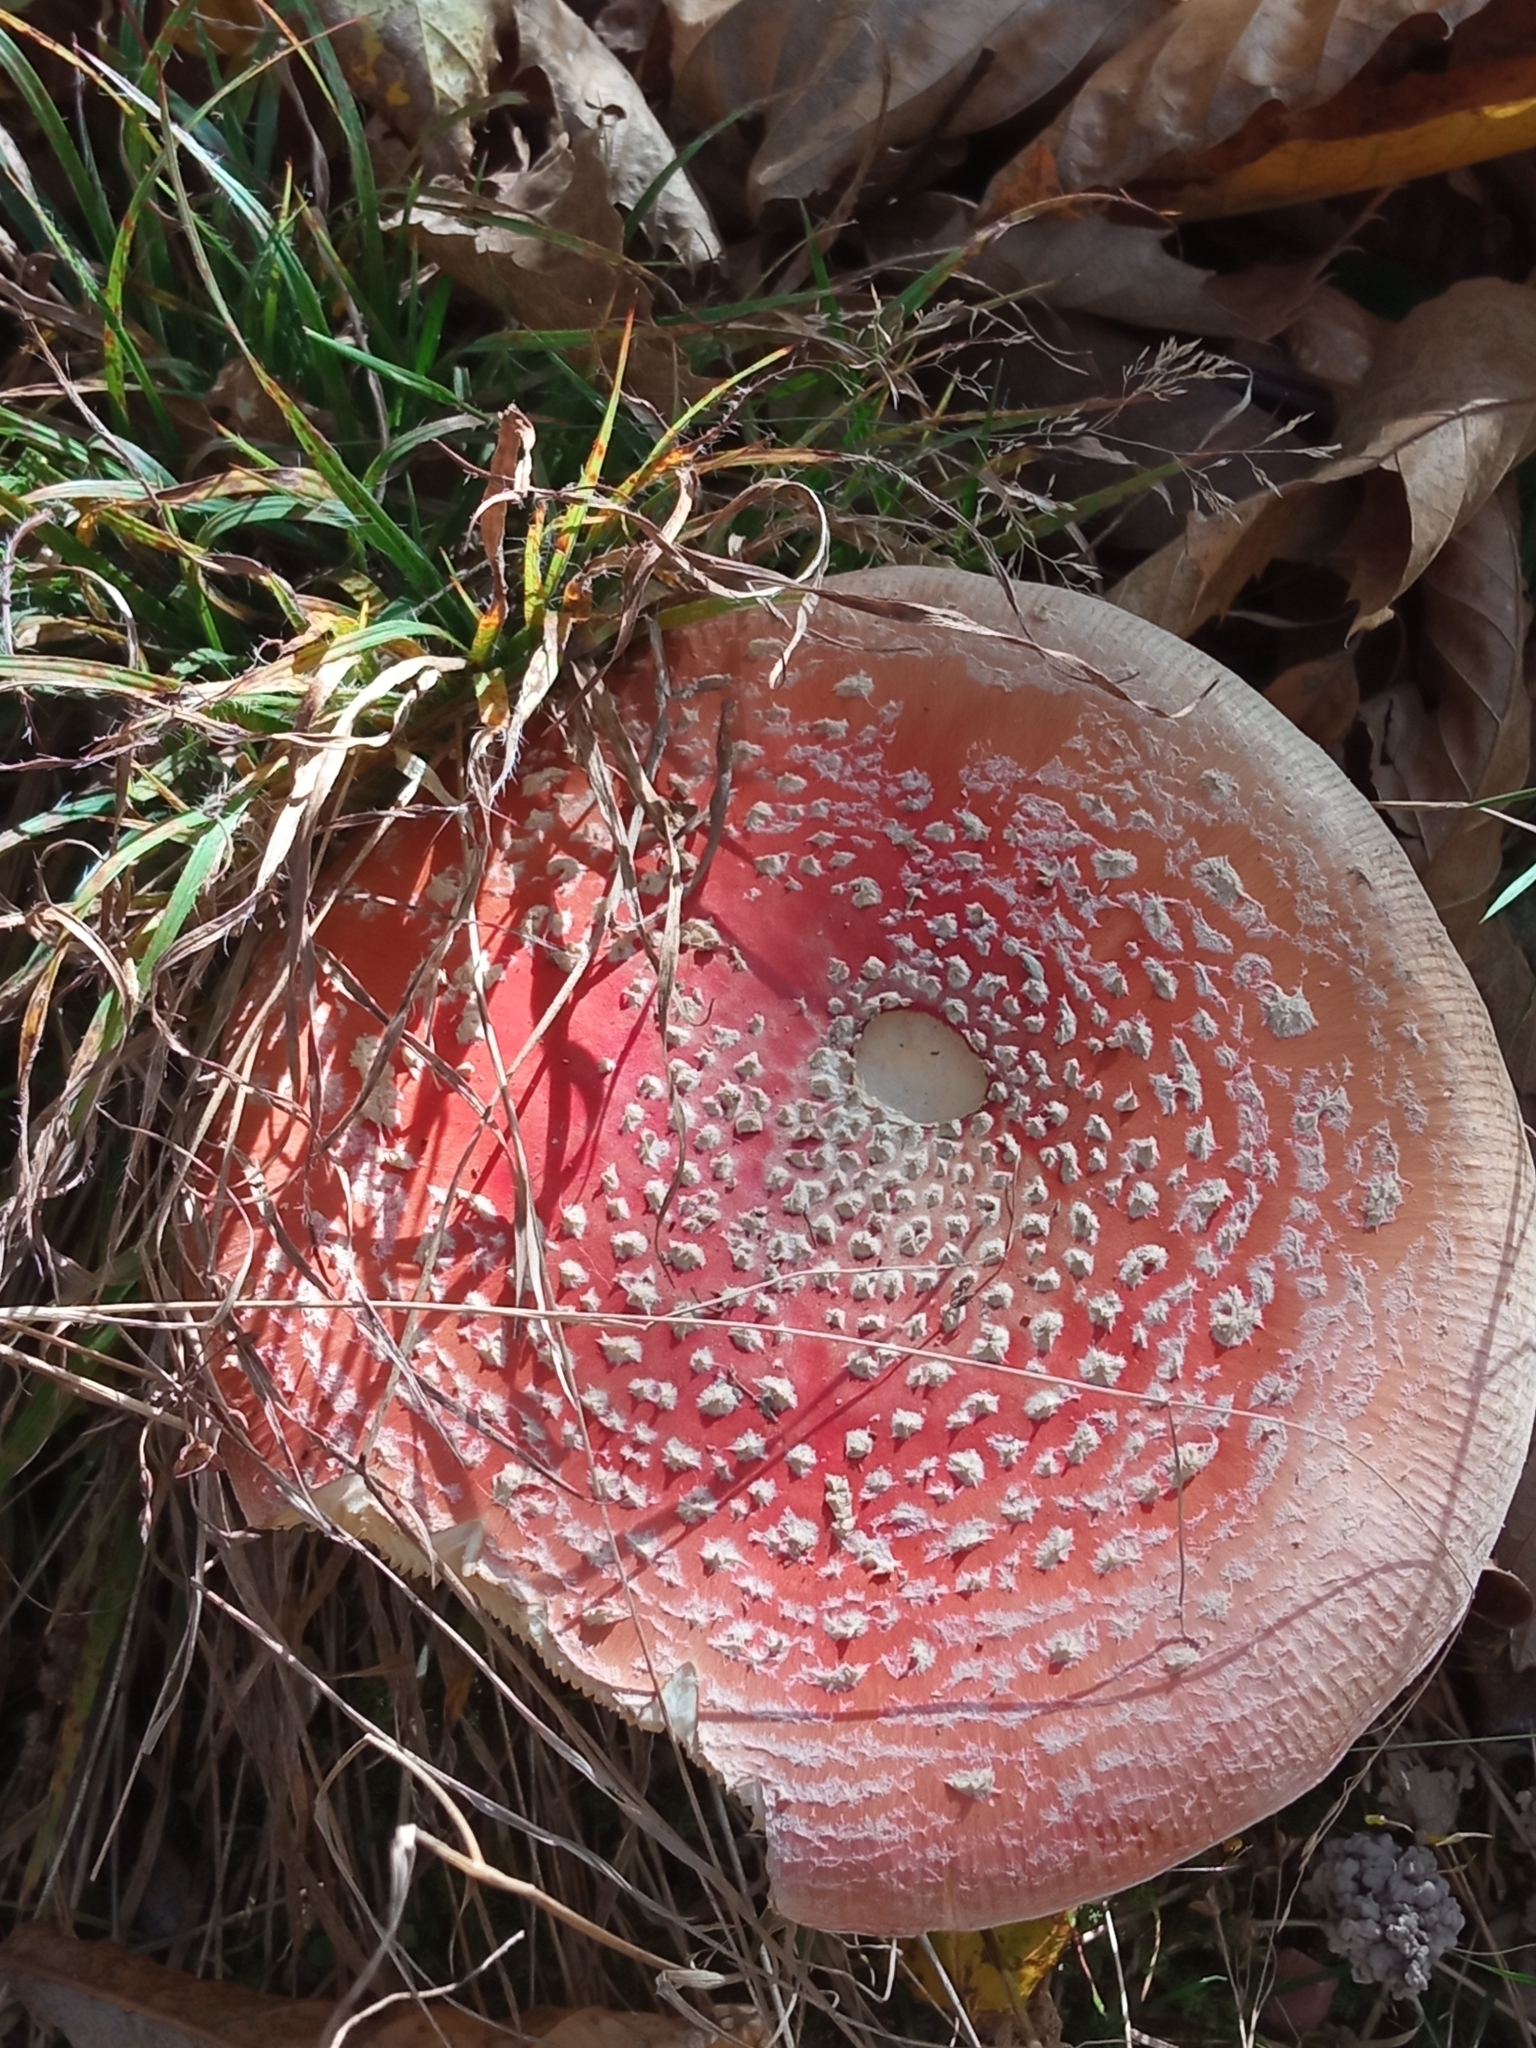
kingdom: Fungi
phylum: Basidiomycota
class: Agaricomycetes
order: Agaricales
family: Amanitaceae
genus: Amanita
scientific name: Amanita muscaria
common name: Fly agaric
